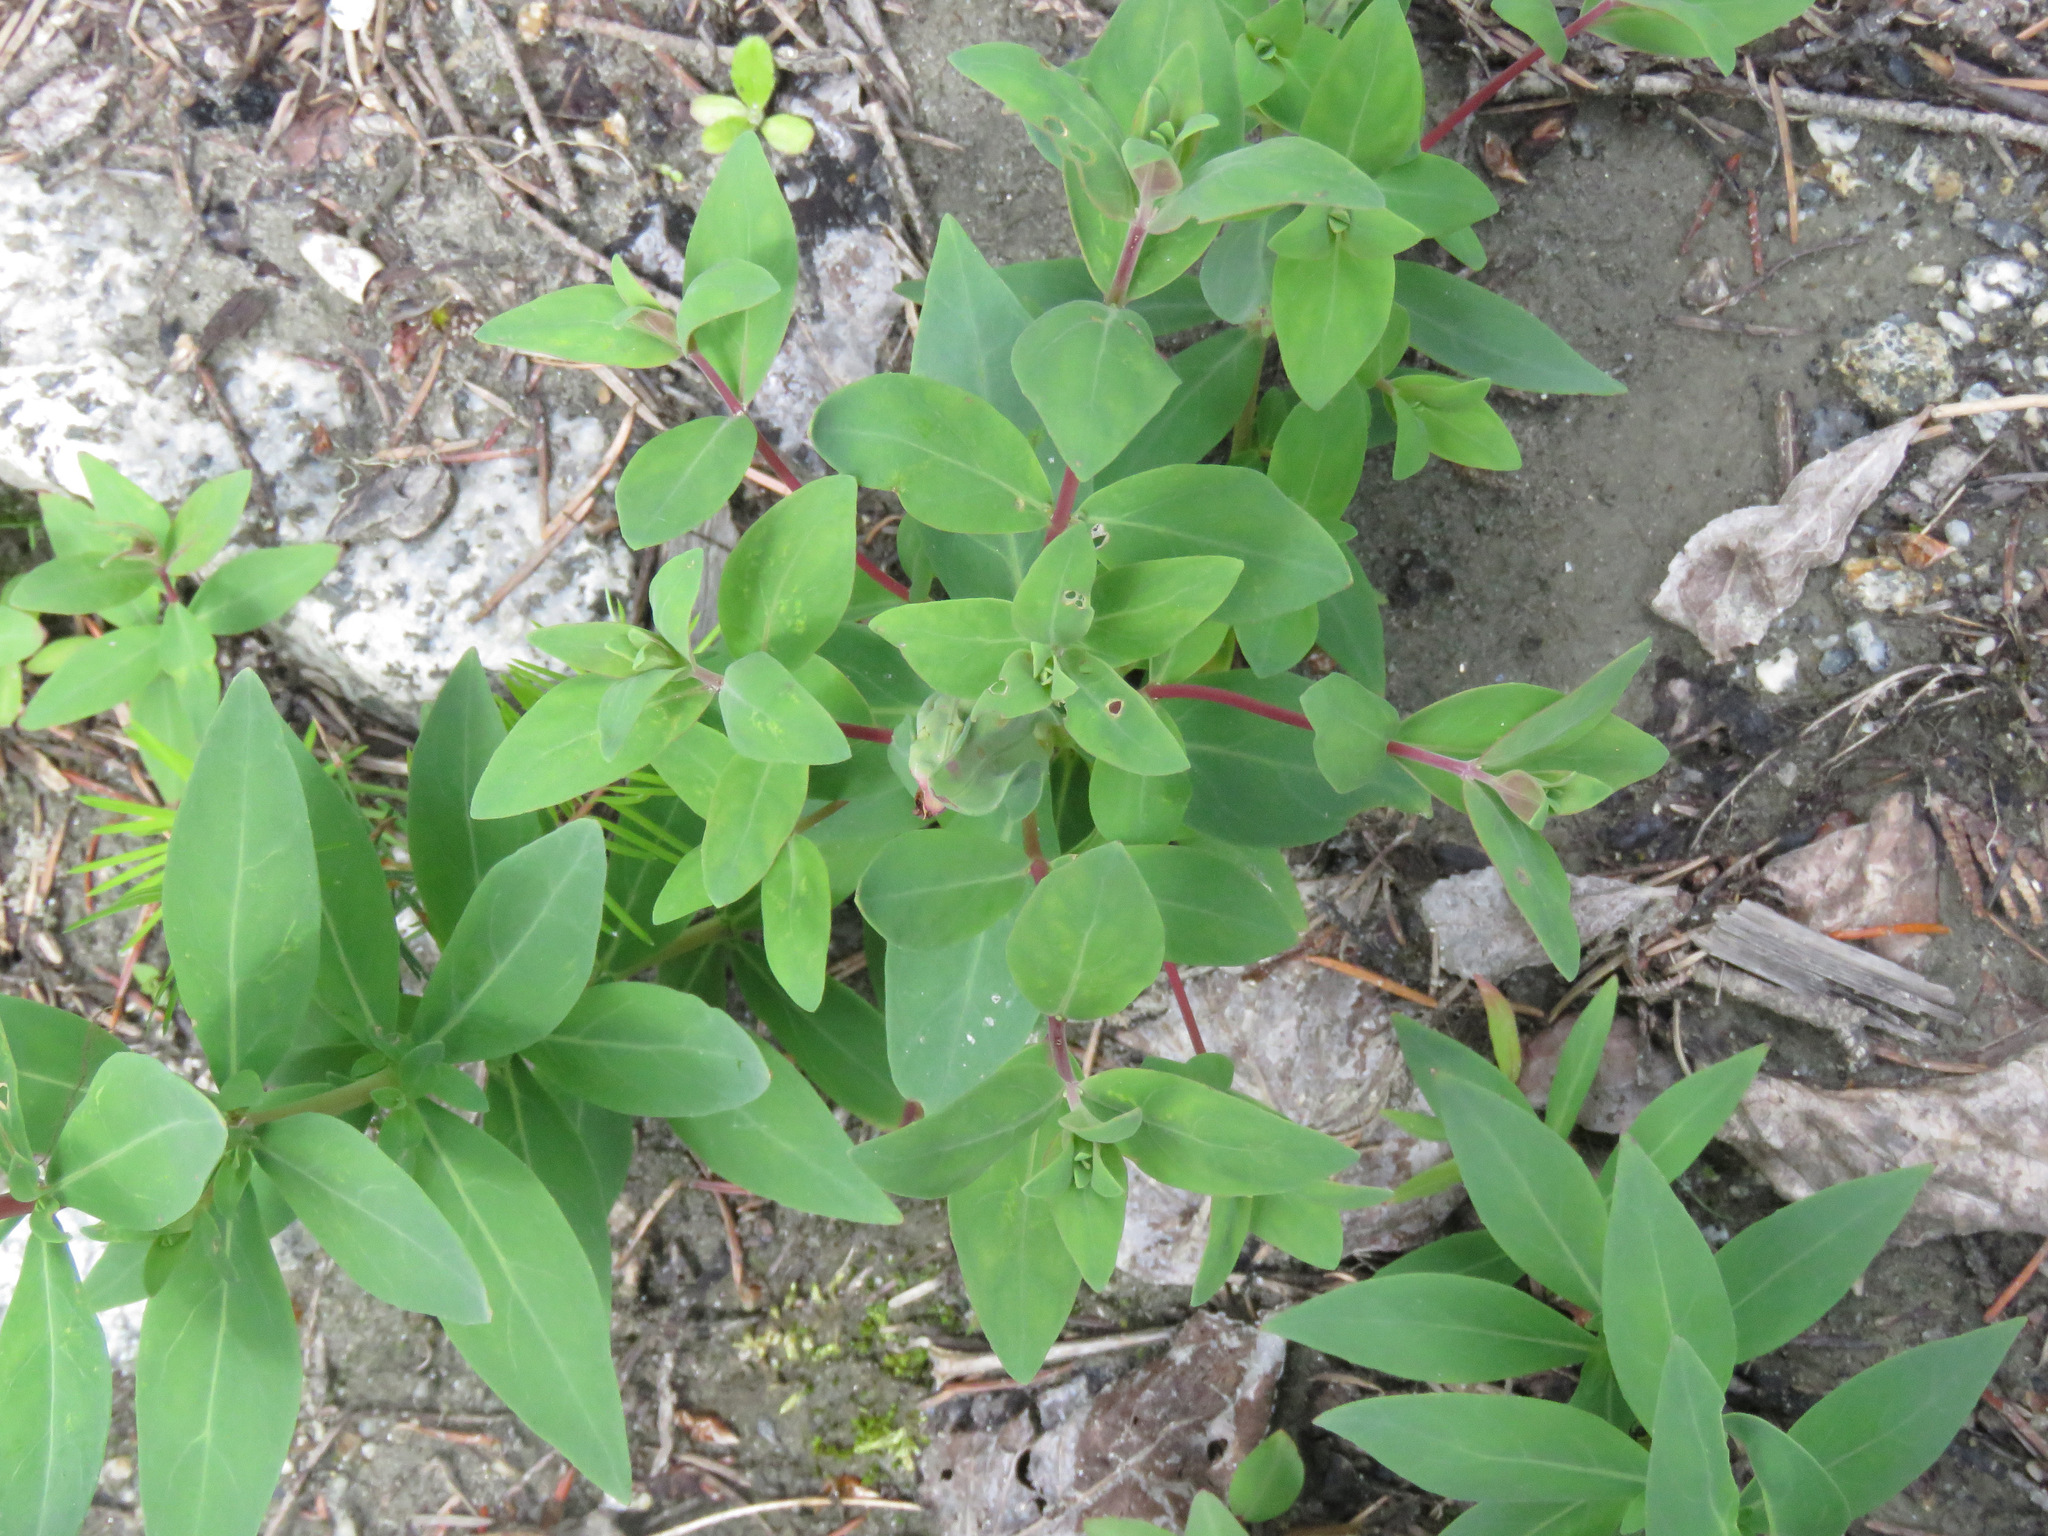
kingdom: Plantae
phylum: Tracheophyta
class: Magnoliopsida
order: Myrtales
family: Onagraceae
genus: Chamaenerion
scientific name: Chamaenerion latifolium
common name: Dwarf fireweed
